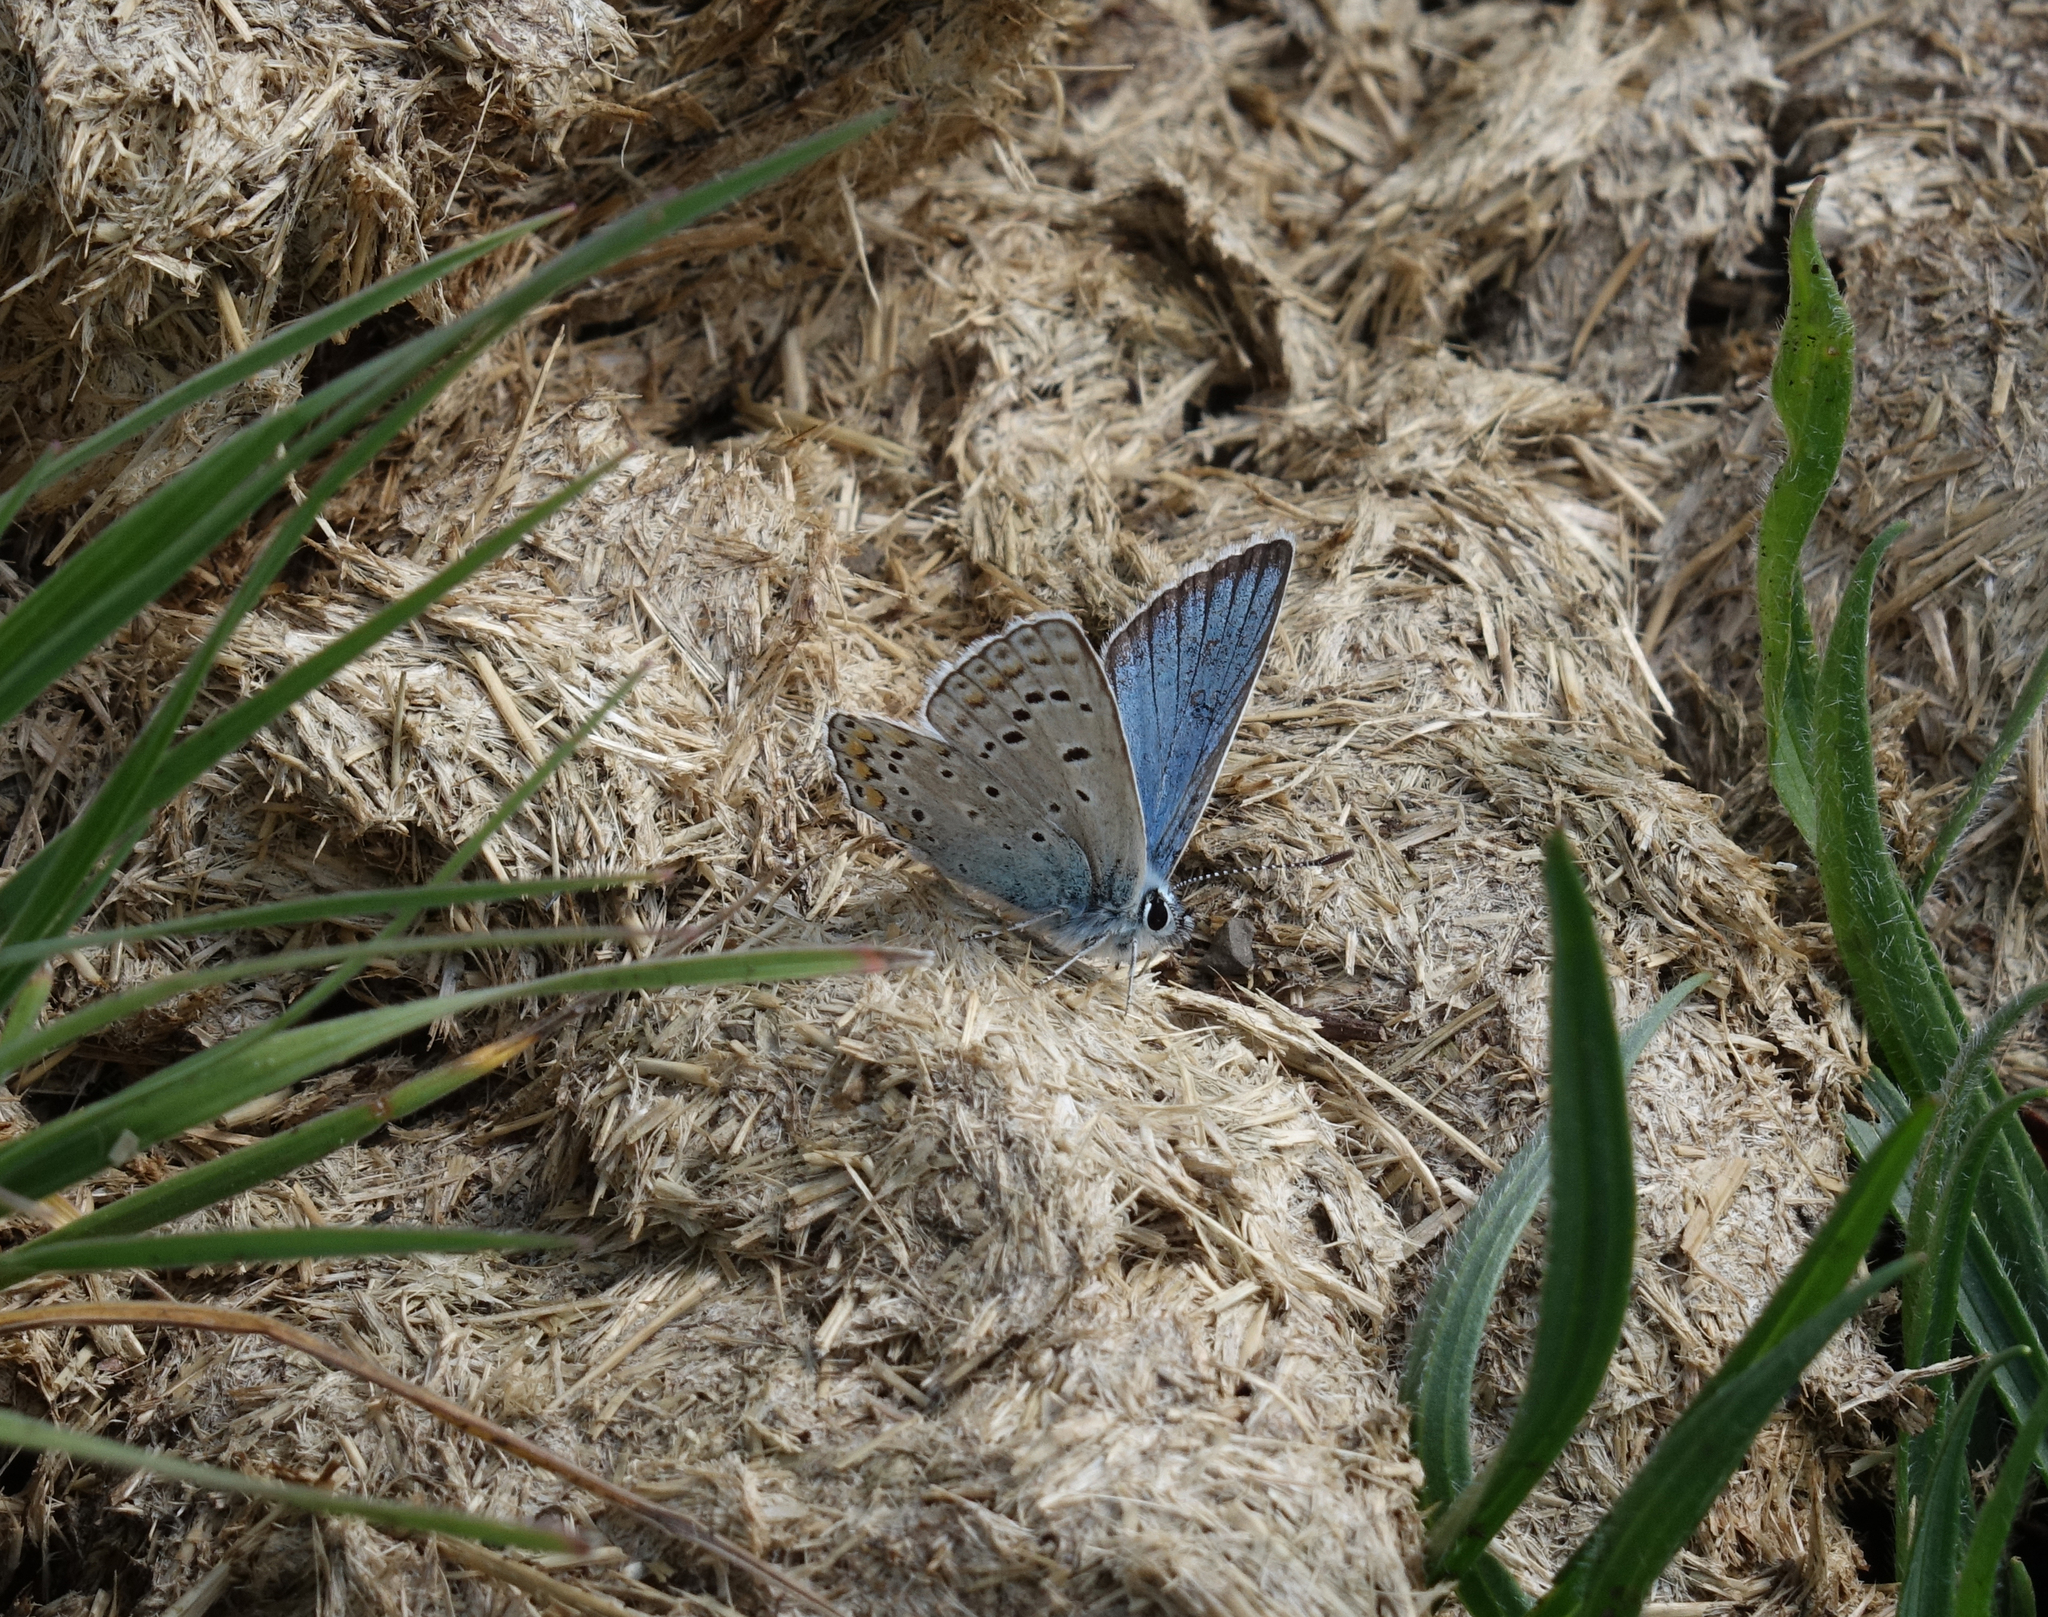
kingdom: Animalia
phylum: Arthropoda
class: Insecta
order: Lepidoptera
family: Lycaenidae
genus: Polyommatus
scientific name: Polyommatus eros
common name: Eros blue
